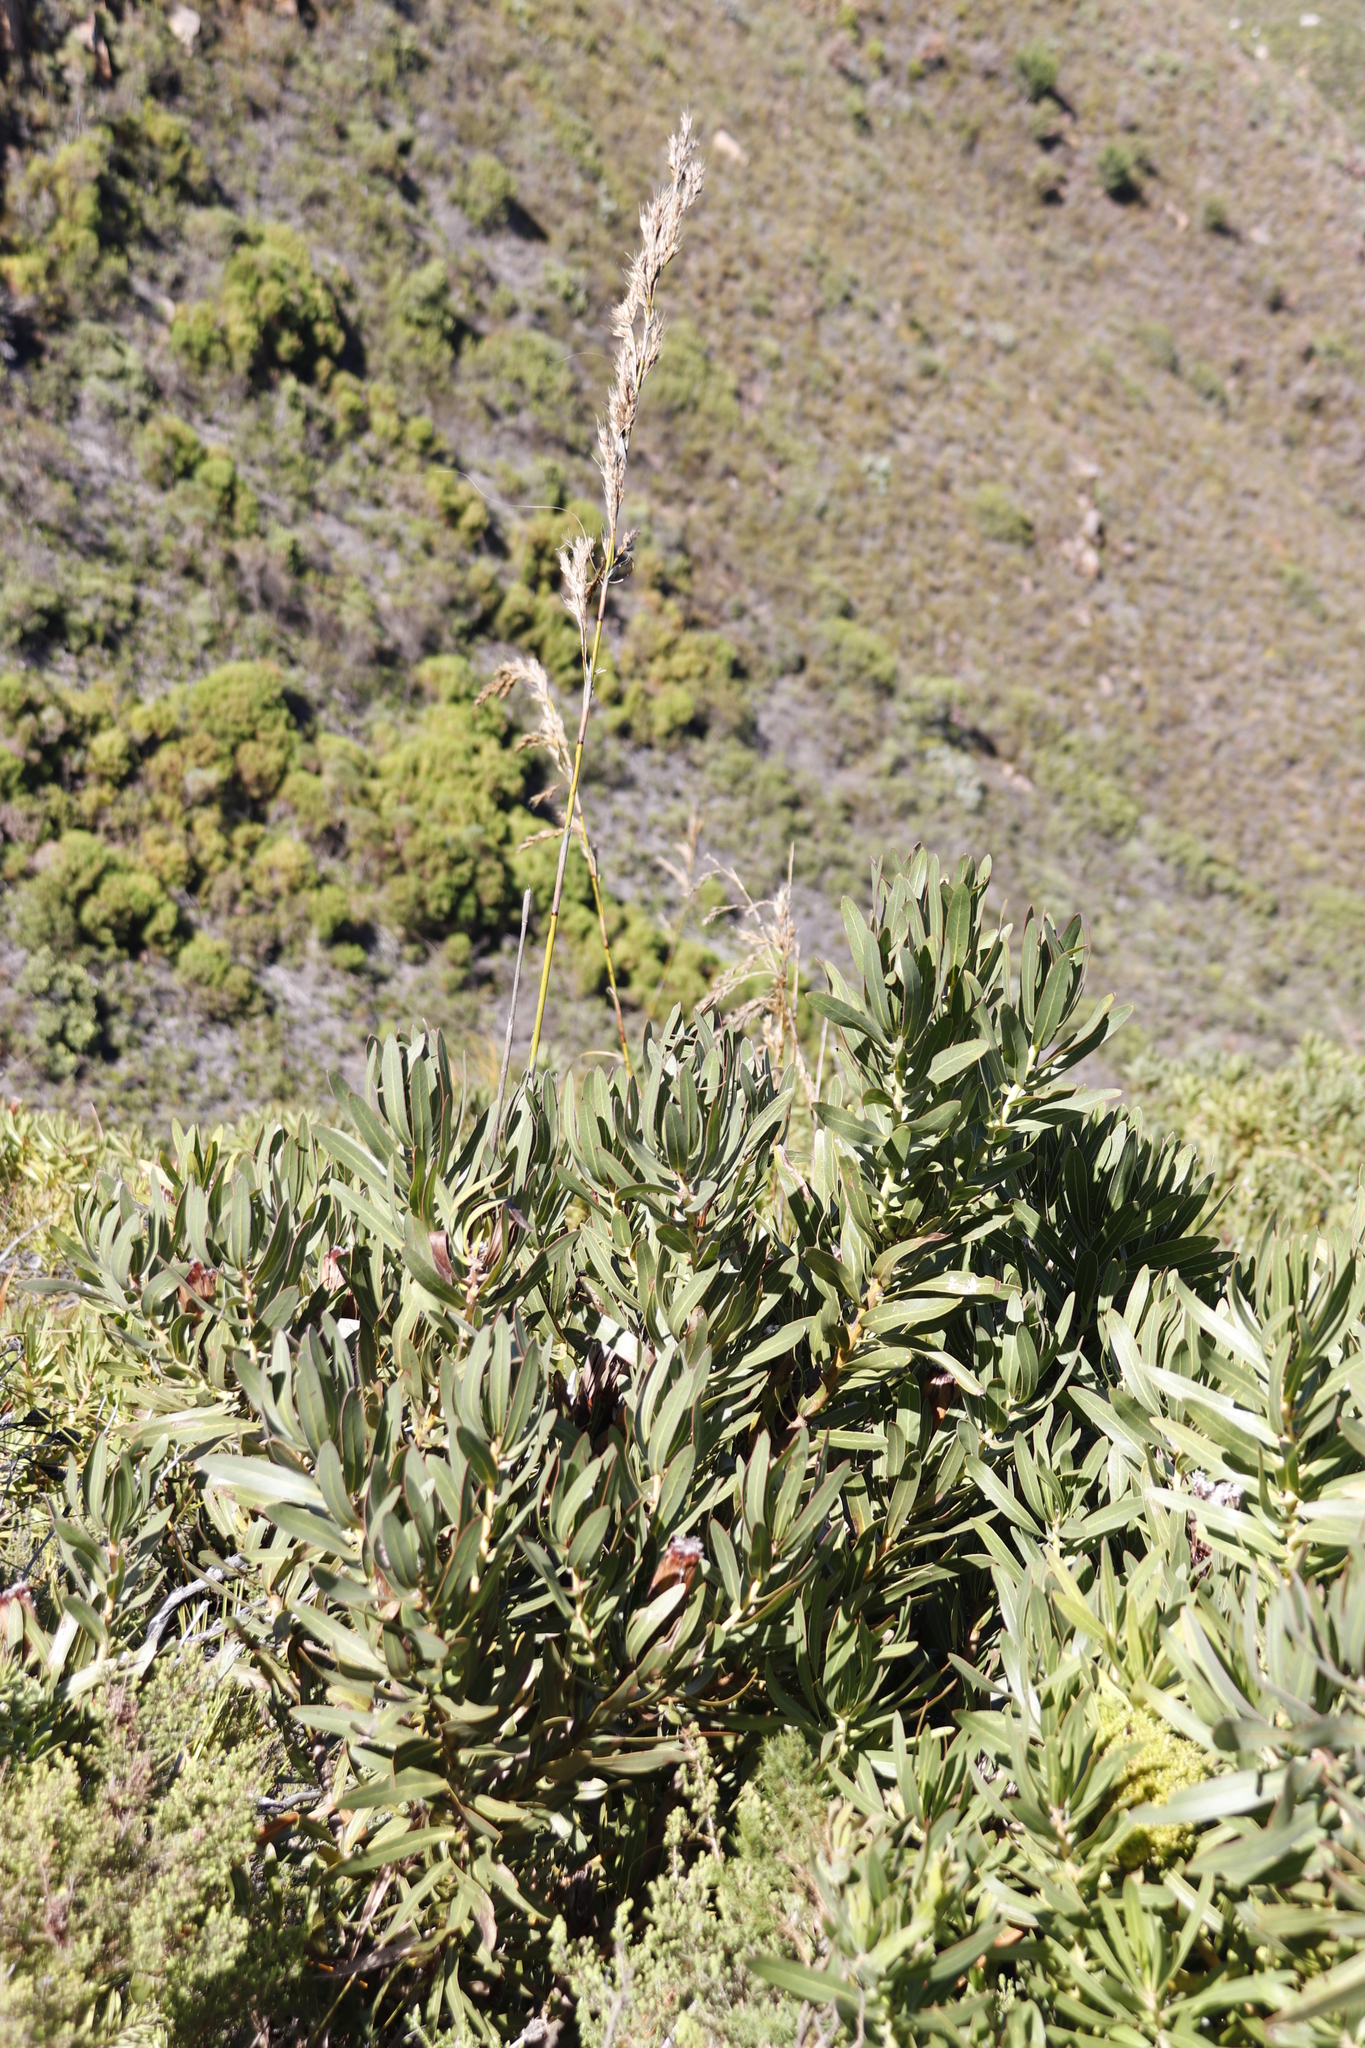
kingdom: Plantae
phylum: Tracheophyta
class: Liliopsida
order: Poales
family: Cyperaceae
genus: Tetraria
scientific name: Tetraria involucrata
